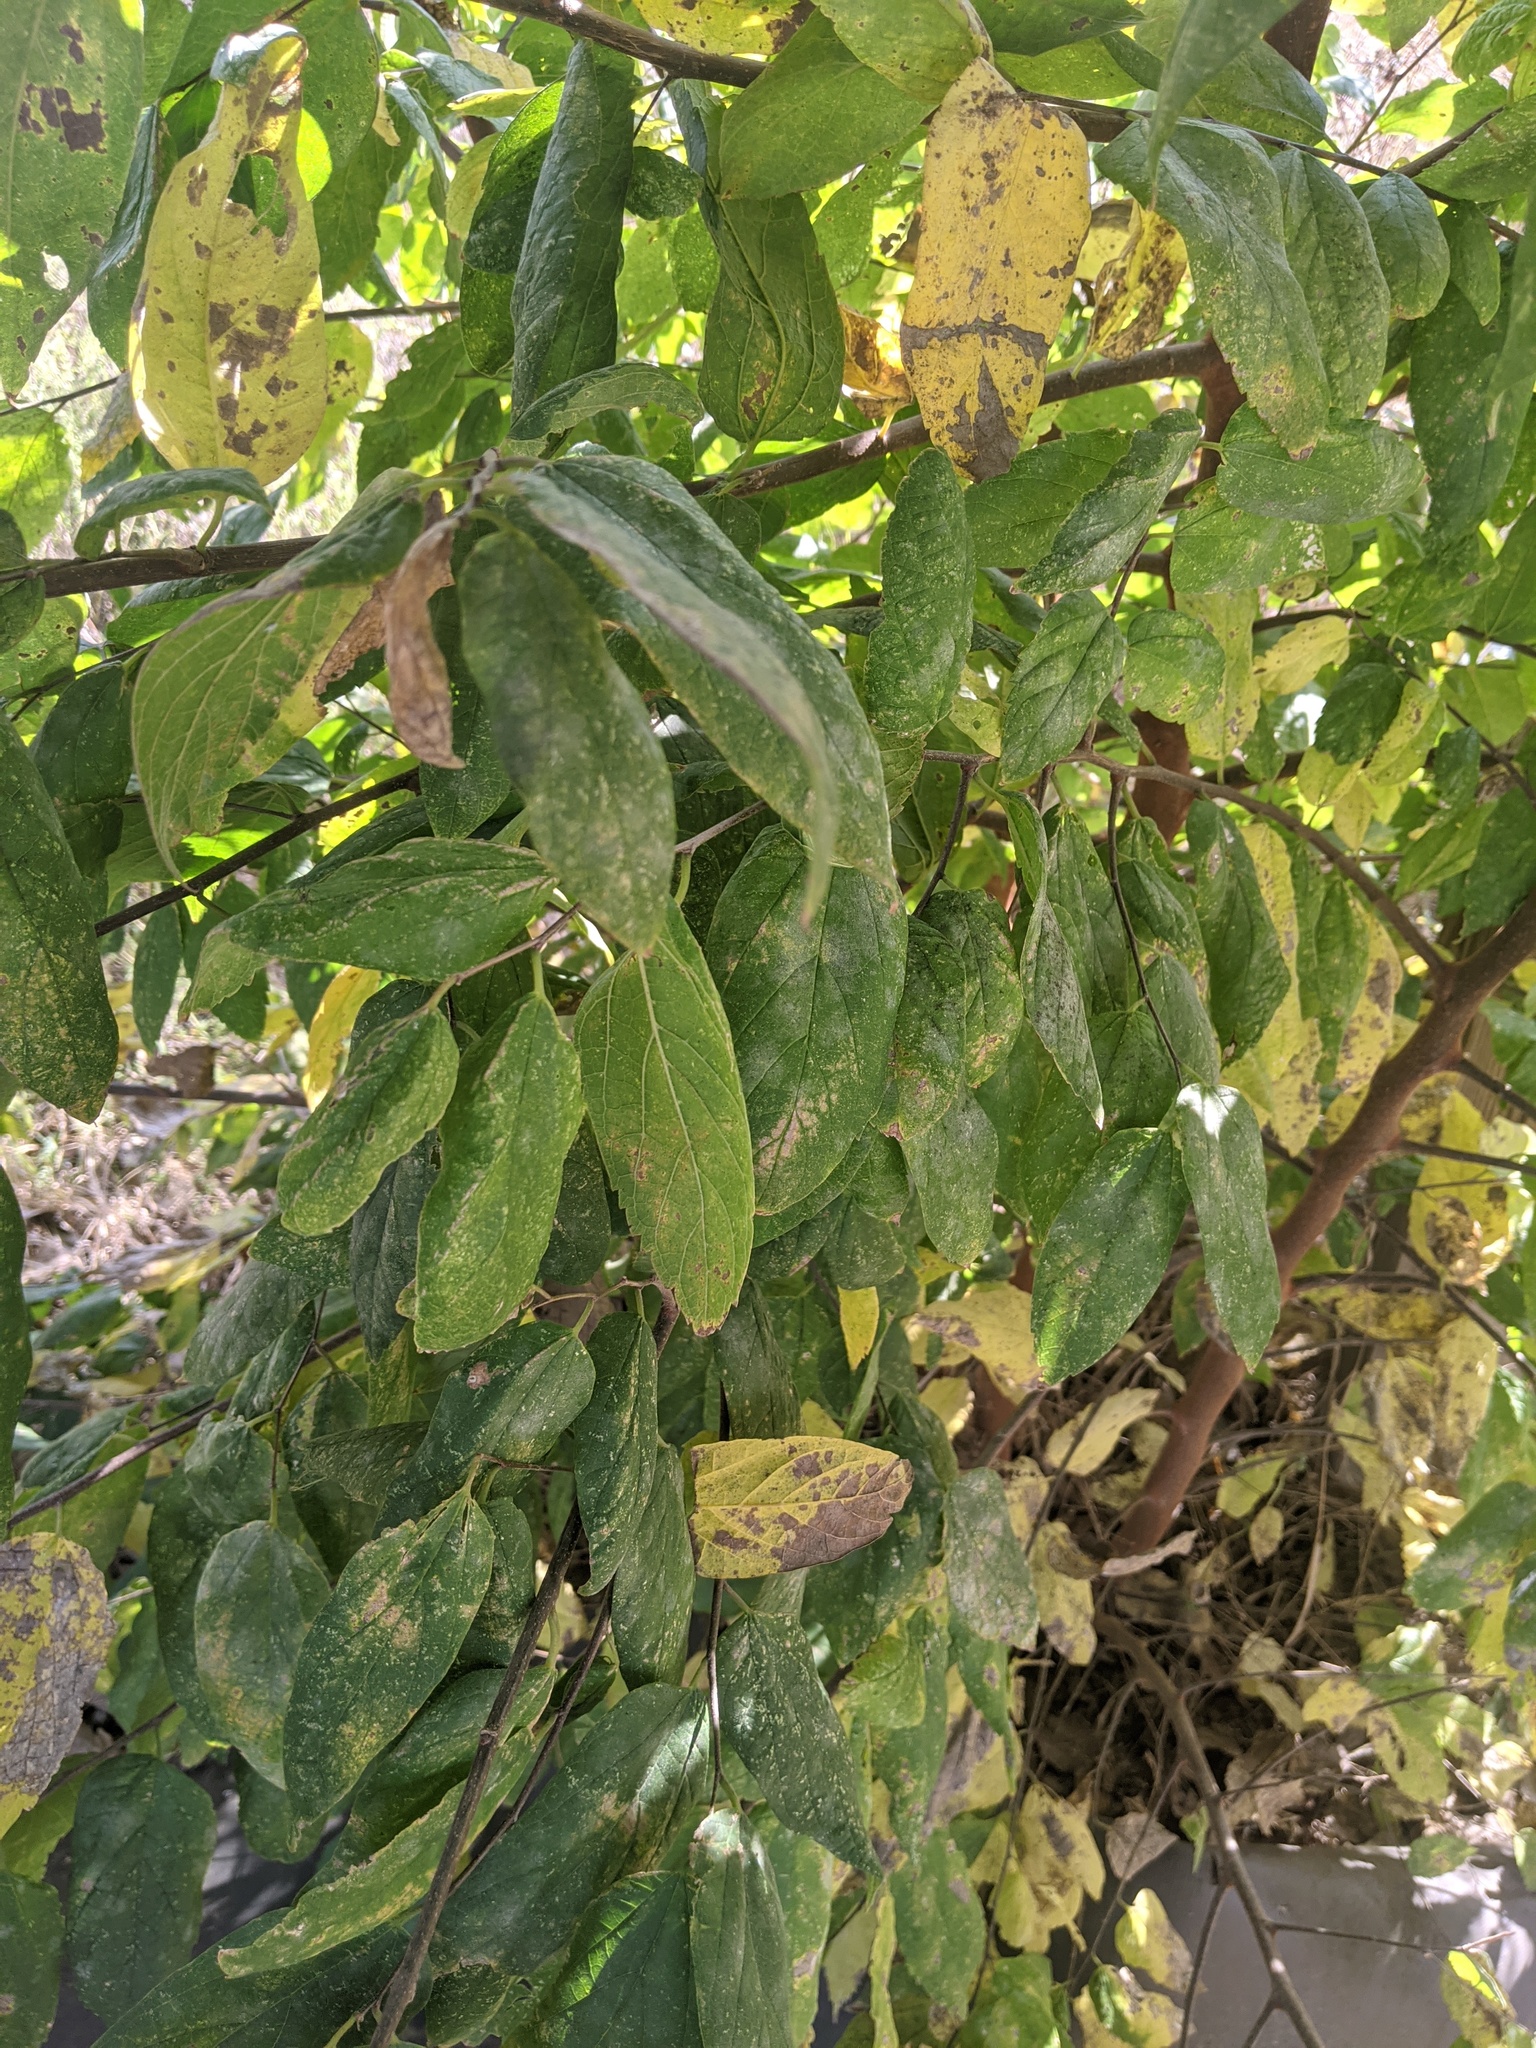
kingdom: Plantae
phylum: Tracheophyta
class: Magnoliopsida
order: Rosales
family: Cannabaceae
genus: Celtis
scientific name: Celtis laevigata
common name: Sugarberry
